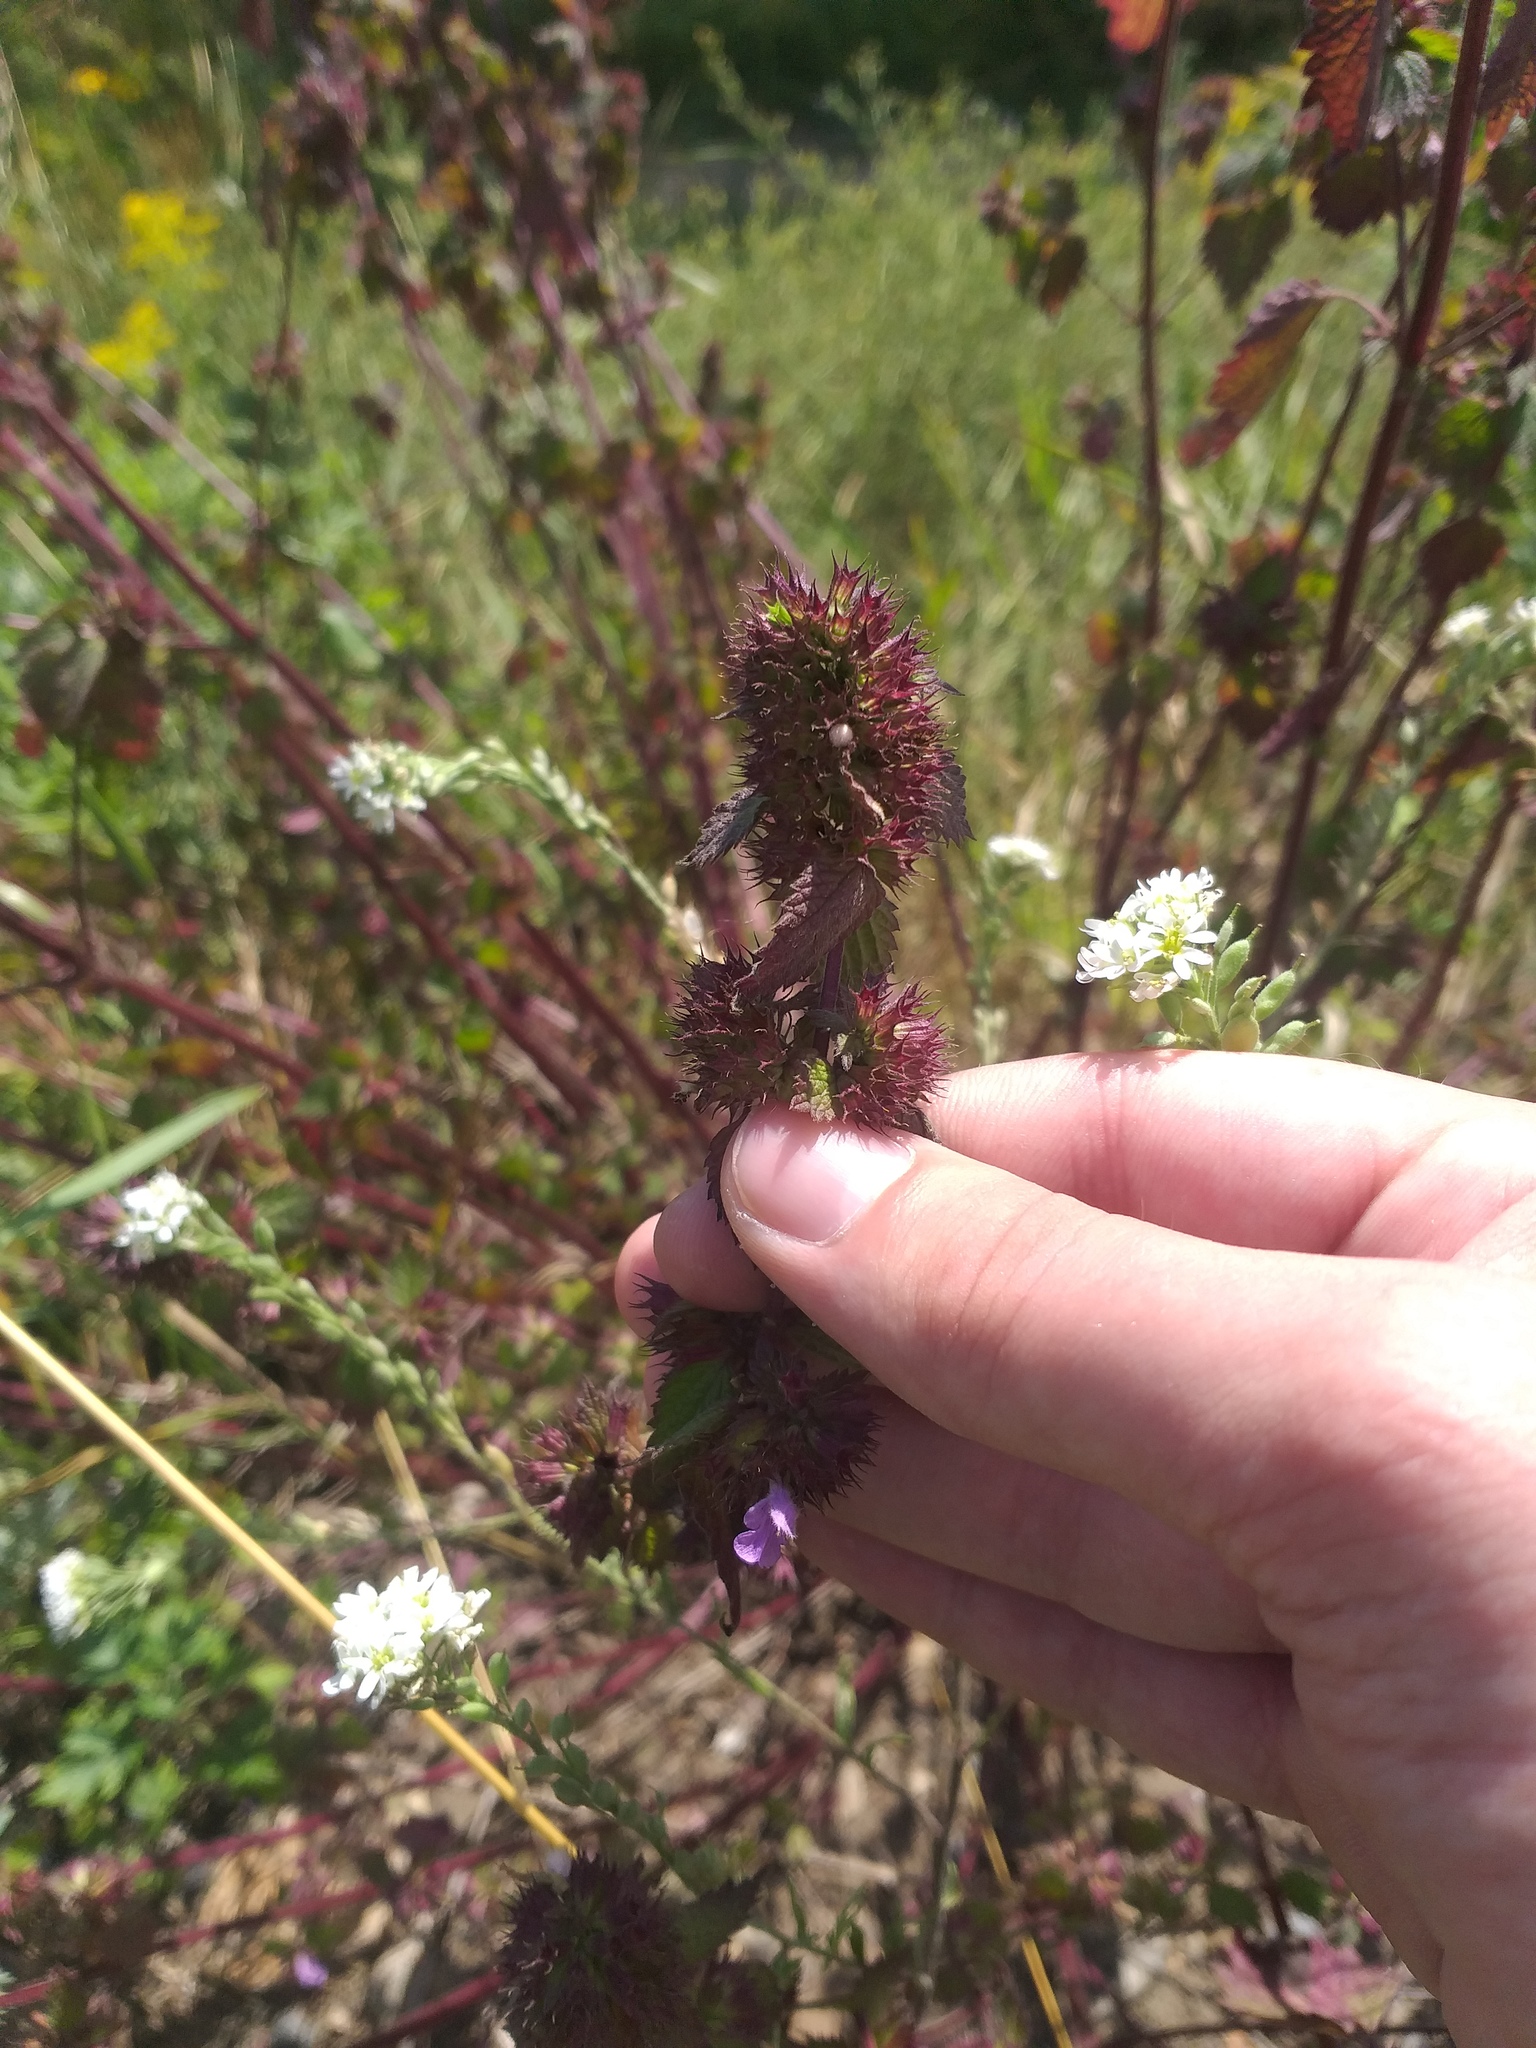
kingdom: Plantae
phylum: Tracheophyta
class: Magnoliopsida
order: Lamiales
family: Lamiaceae
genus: Ballota
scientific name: Ballota nigra
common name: Black horehound
